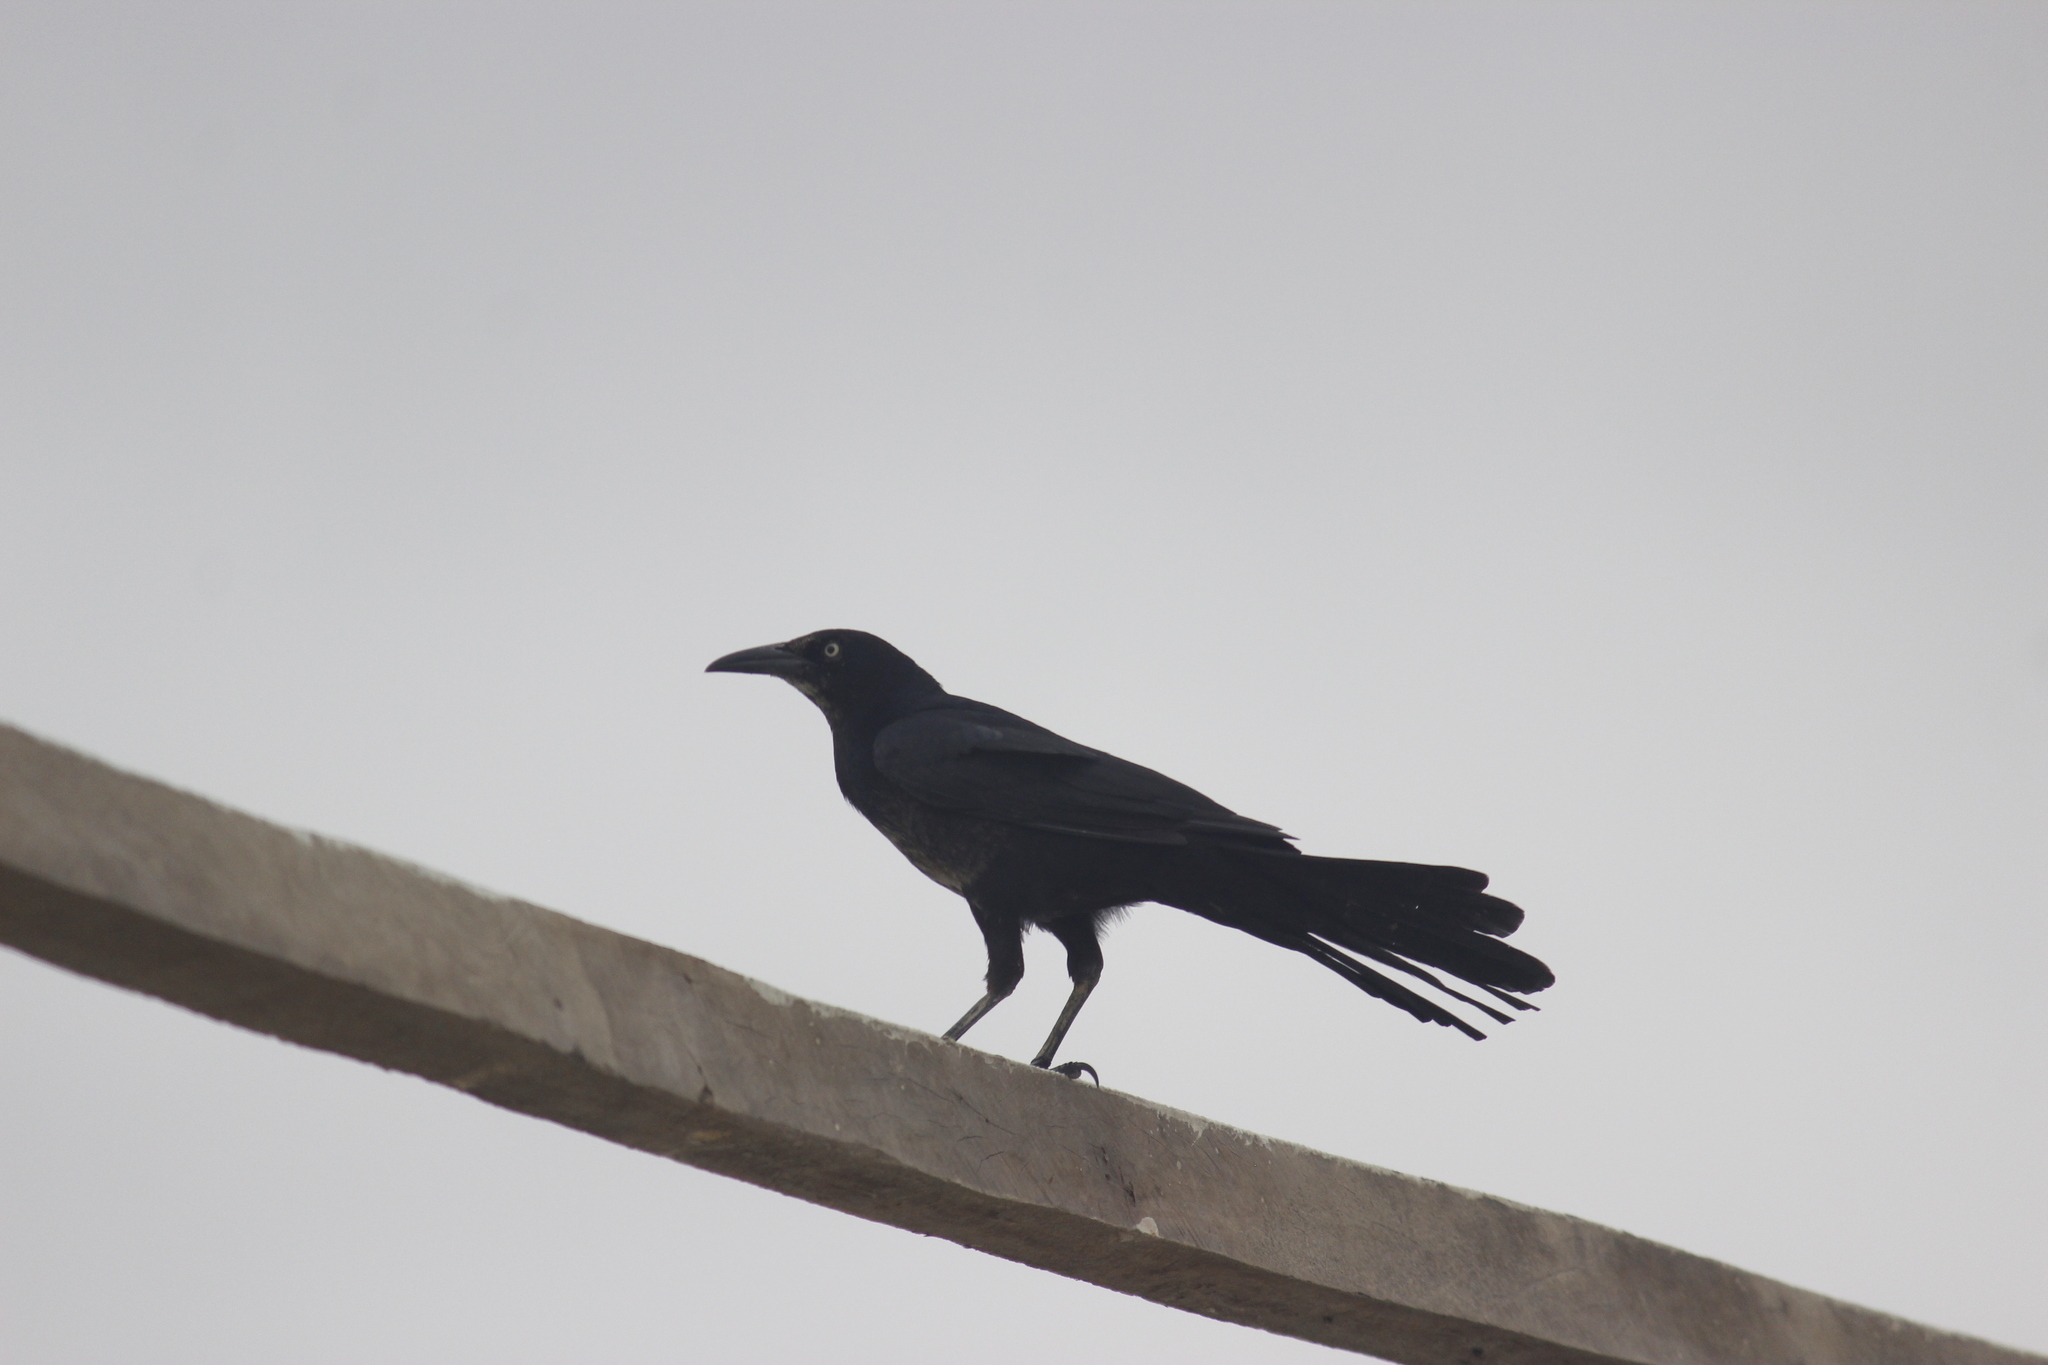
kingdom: Animalia
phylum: Chordata
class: Aves
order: Passeriformes
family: Icteridae
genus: Quiscalus
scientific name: Quiscalus mexicanus
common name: Great-tailed grackle
